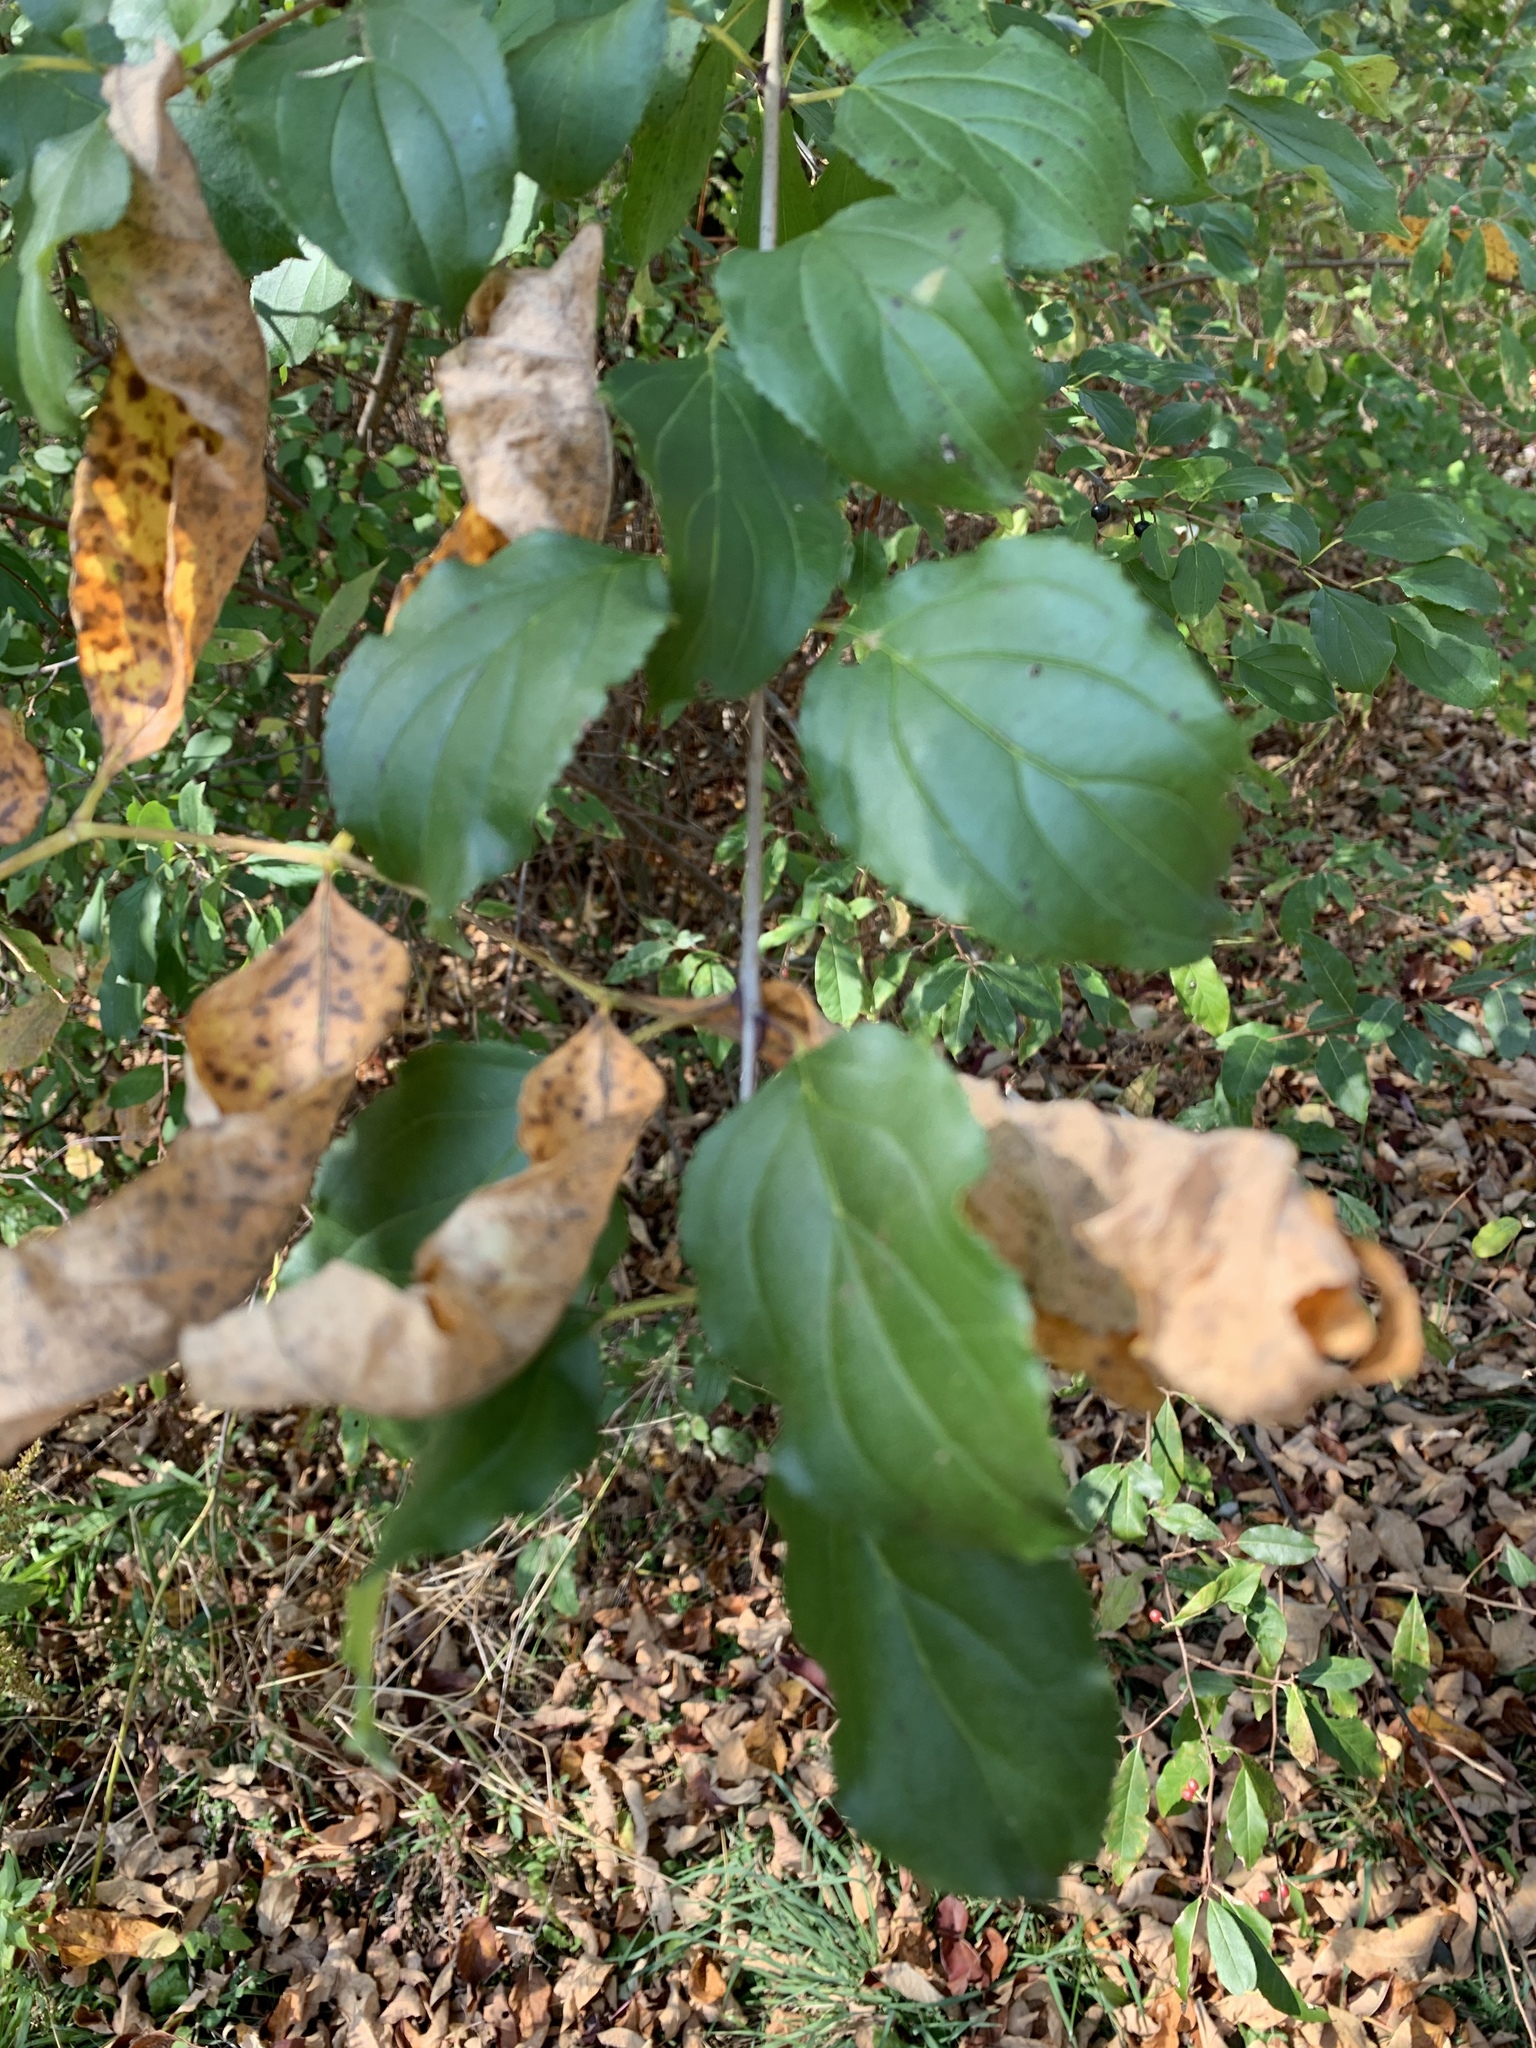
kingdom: Plantae
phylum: Tracheophyta
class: Magnoliopsida
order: Rosales
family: Rhamnaceae
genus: Rhamnus
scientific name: Rhamnus cathartica
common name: Common buckthorn
